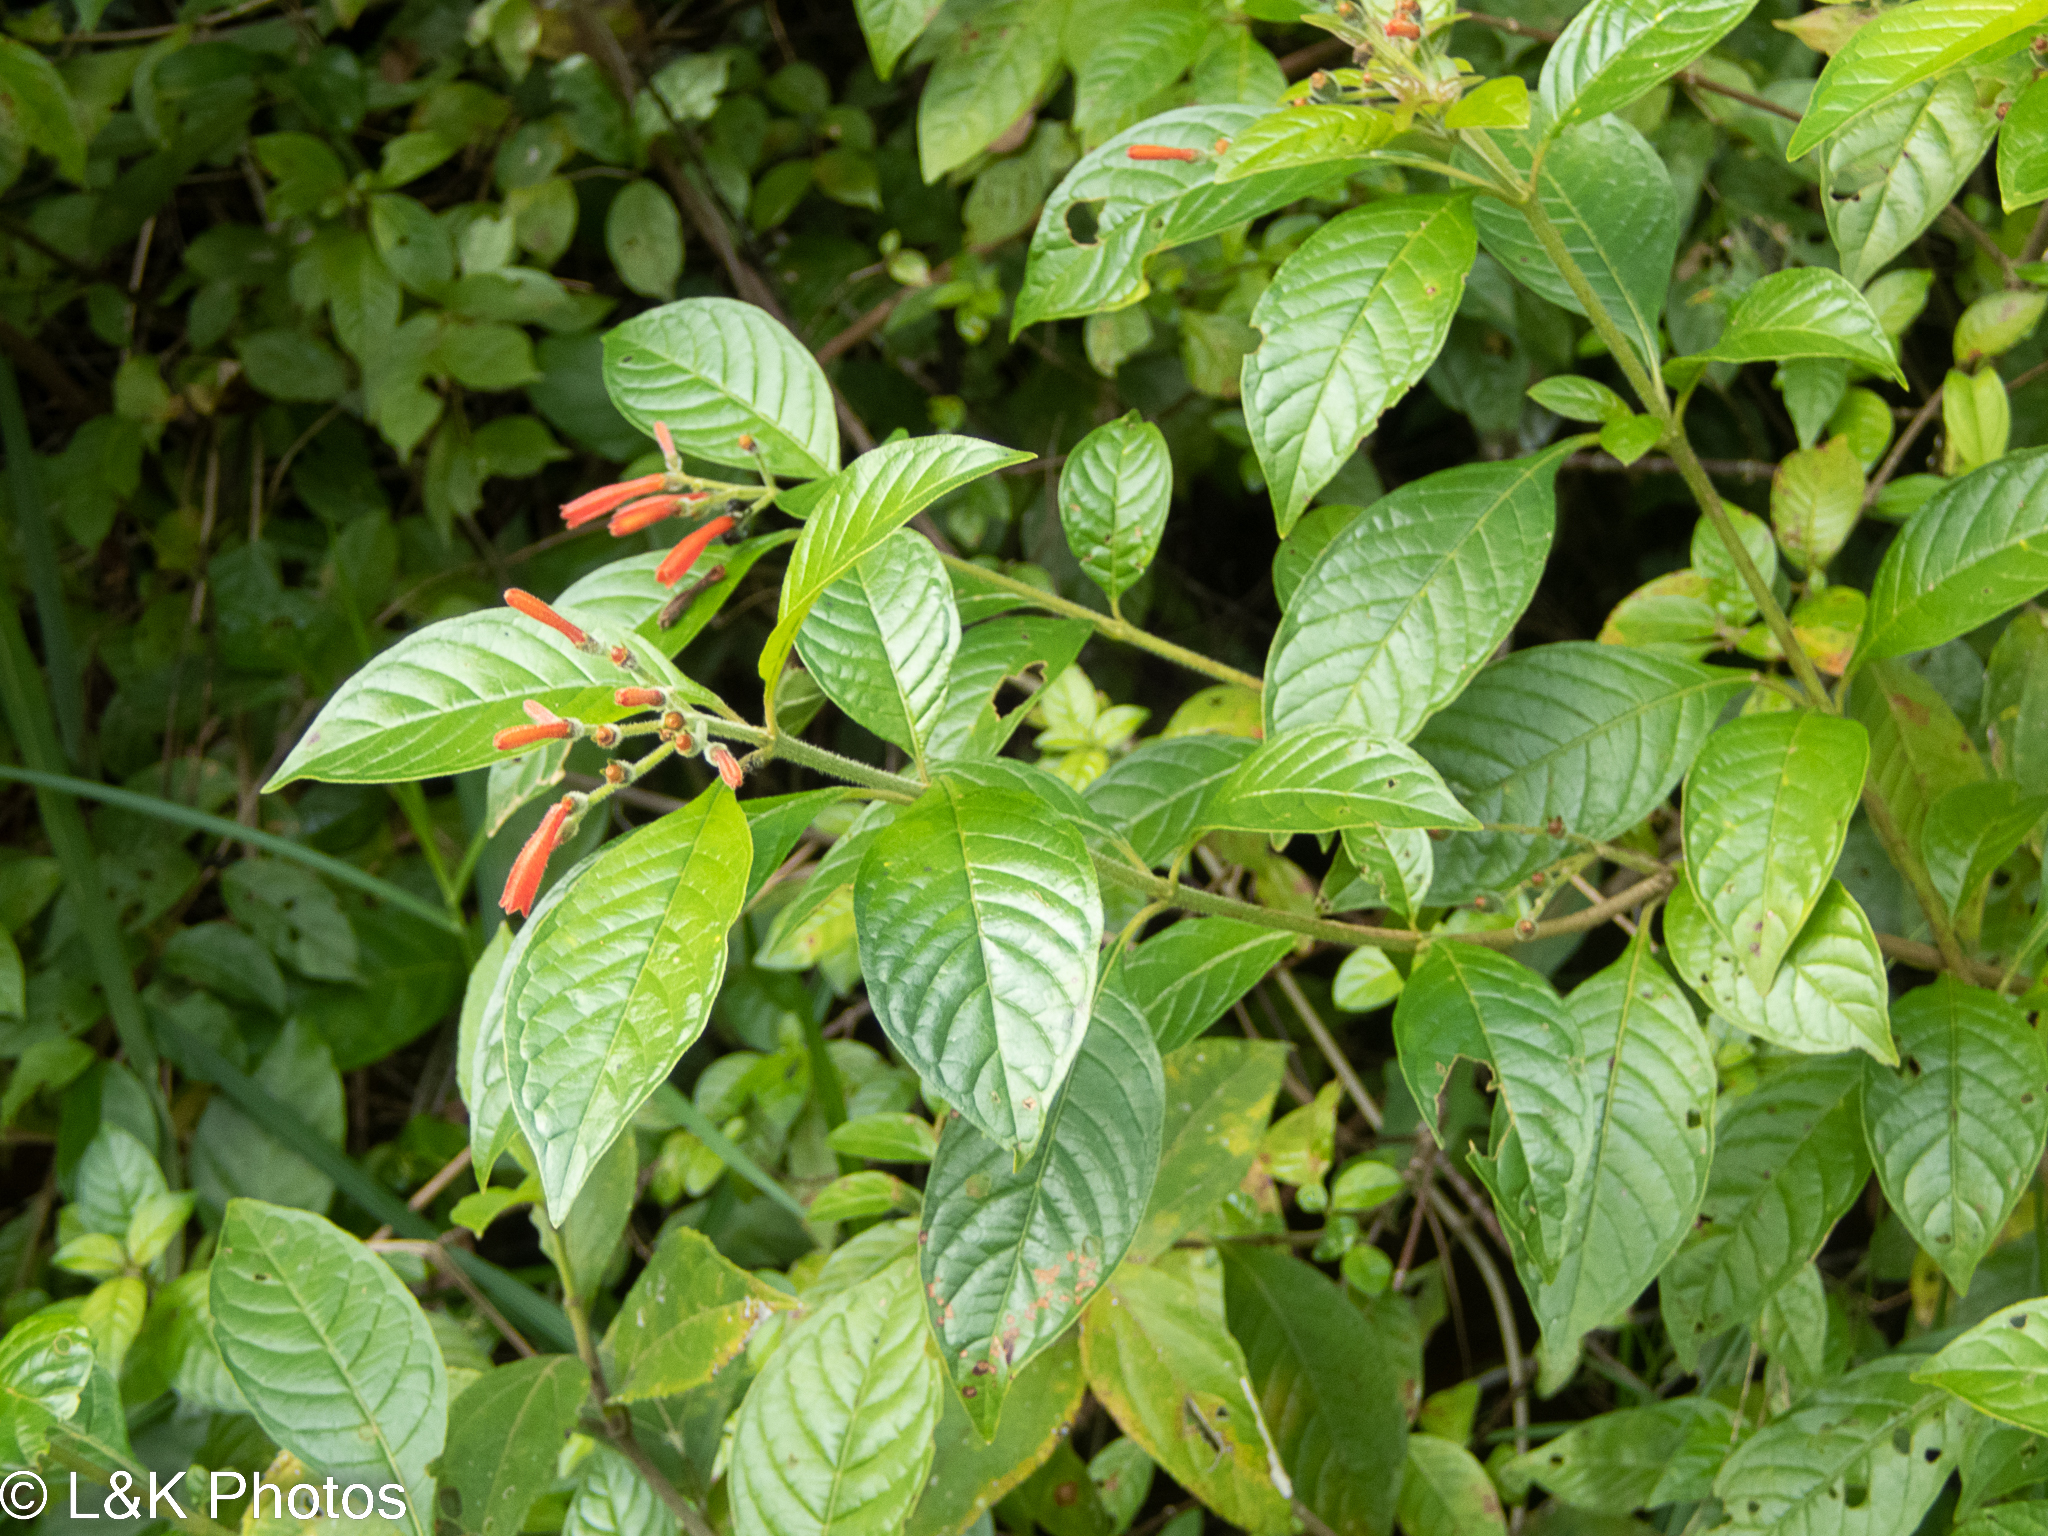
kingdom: Plantae
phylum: Tracheophyta
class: Magnoliopsida
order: Gentianales
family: Rubiaceae
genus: Hamelia
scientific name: Hamelia rovirosae
